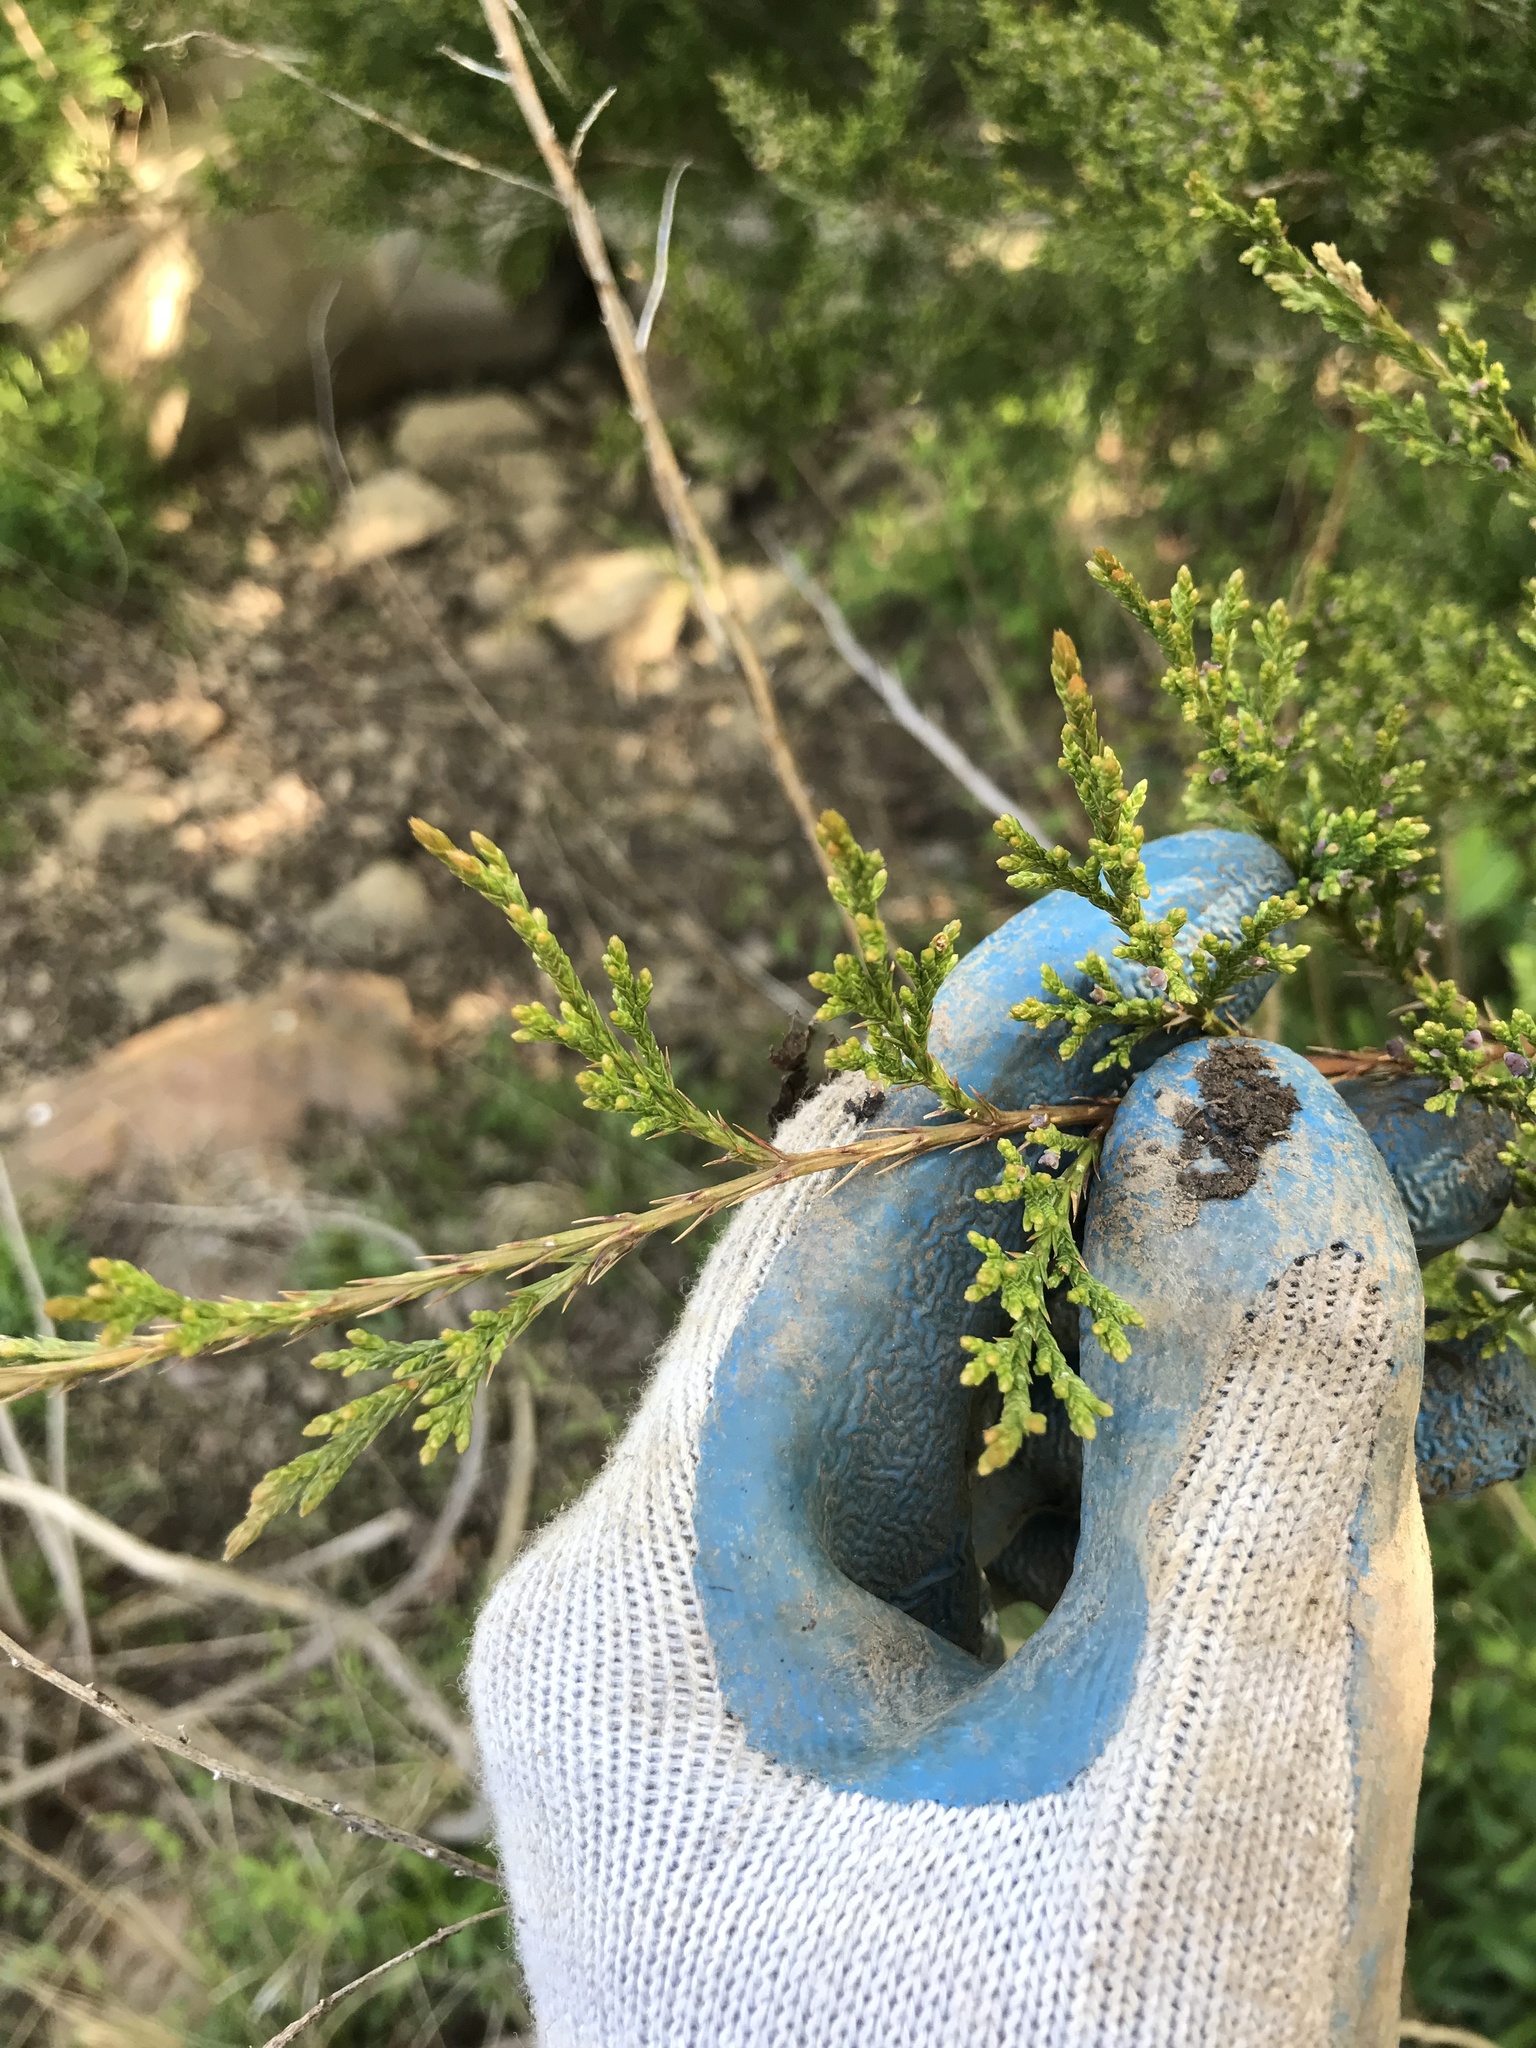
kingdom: Plantae
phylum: Tracheophyta
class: Pinopsida
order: Pinales
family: Cupressaceae
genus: Juniperus
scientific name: Juniperus virginiana
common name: Red juniper
